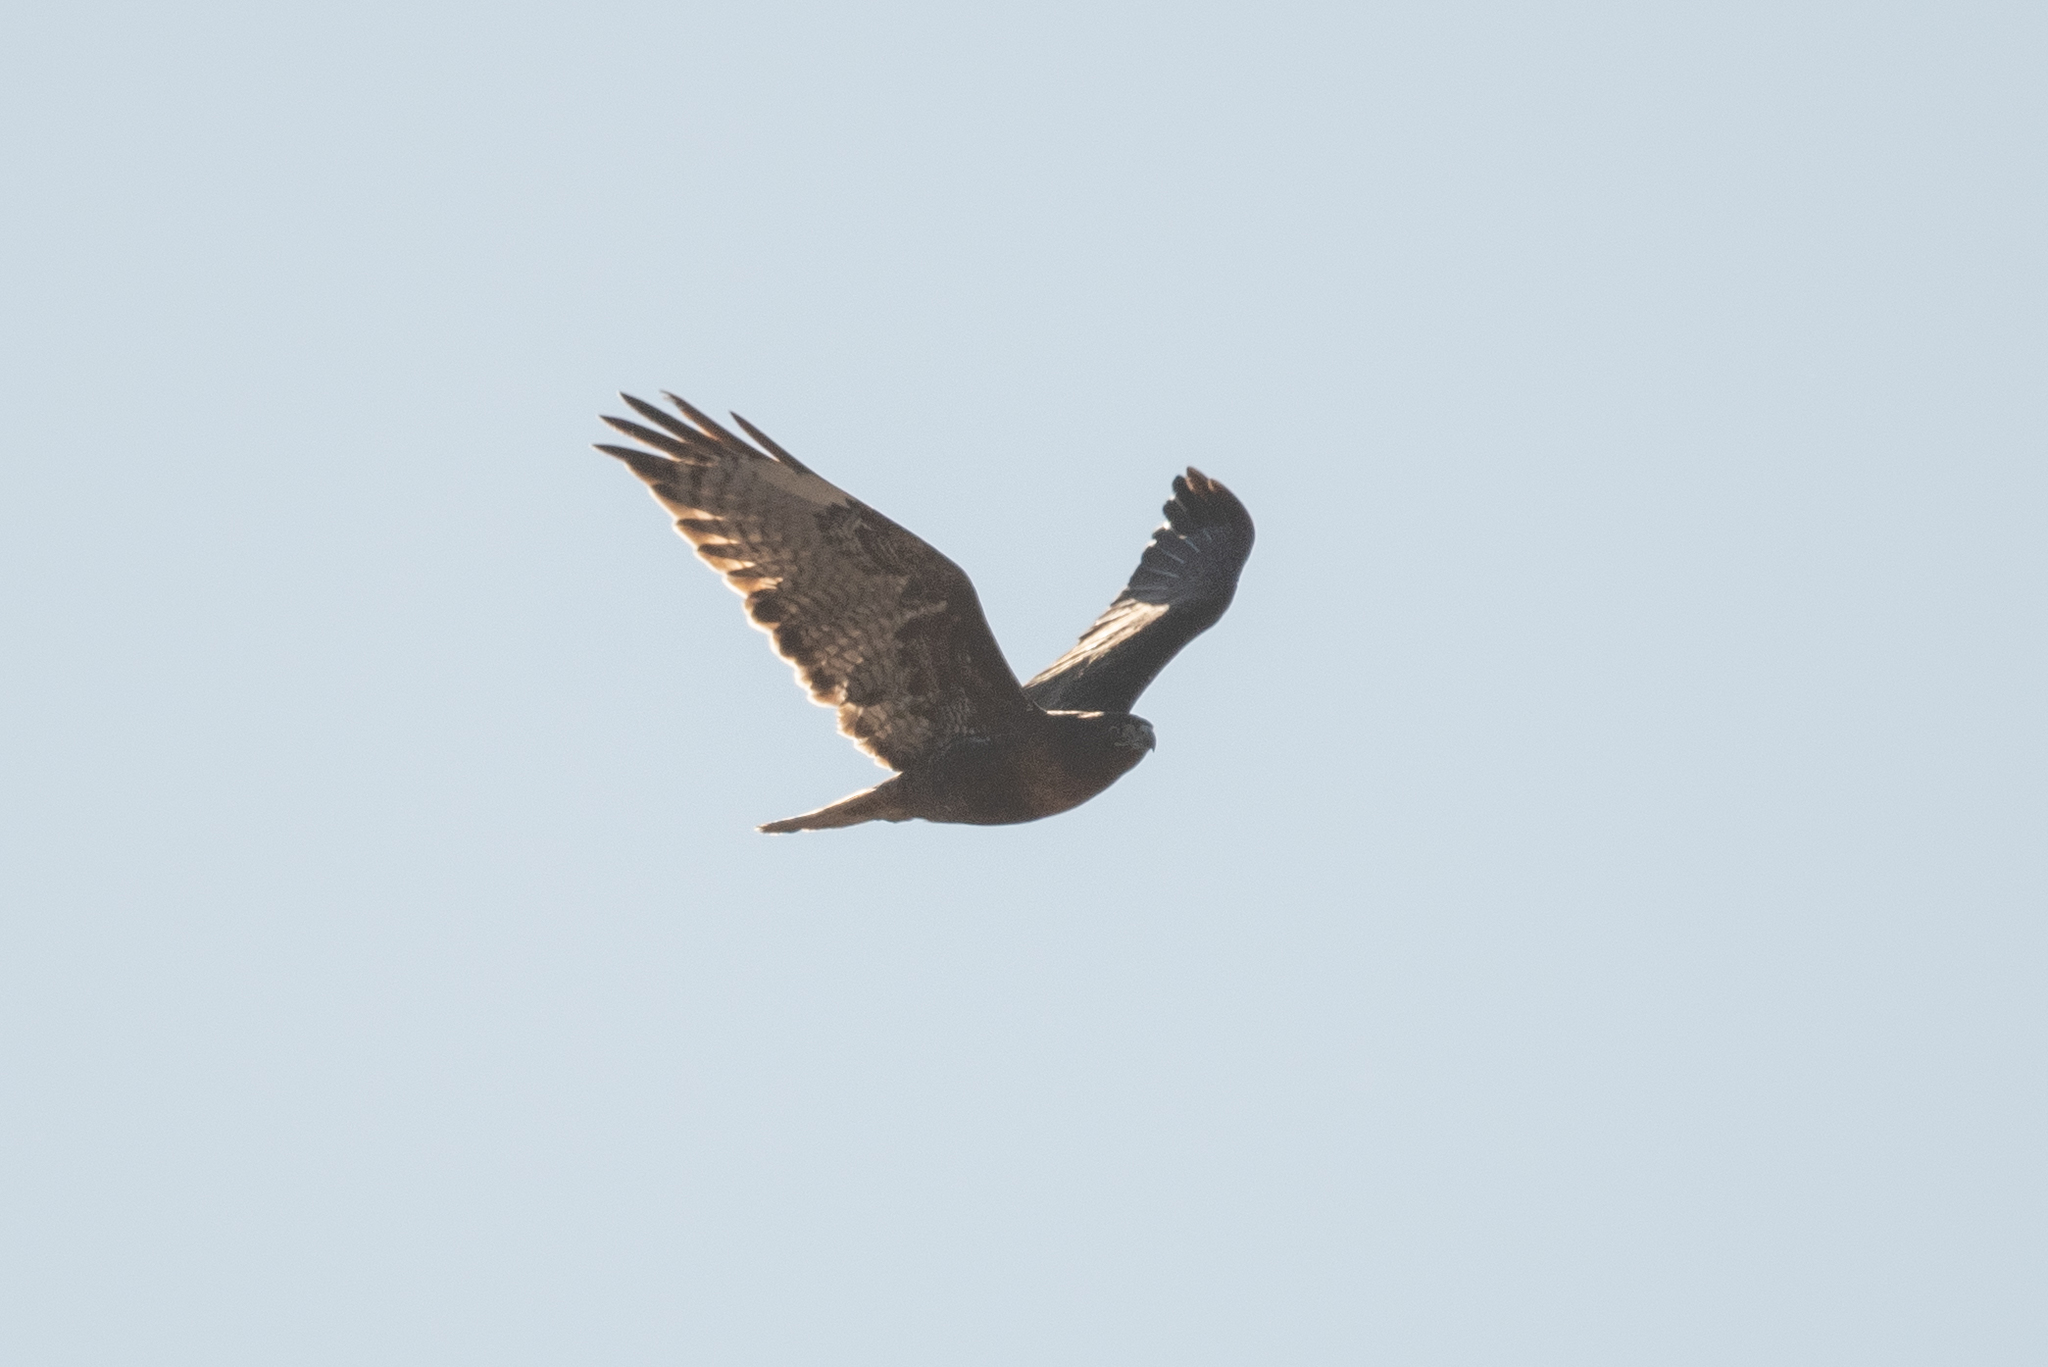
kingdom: Animalia
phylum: Chordata
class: Aves
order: Accipitriformes
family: Accipitridae
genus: Buteo
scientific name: Buteo jamaicensis
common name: Red-tailed hawk
